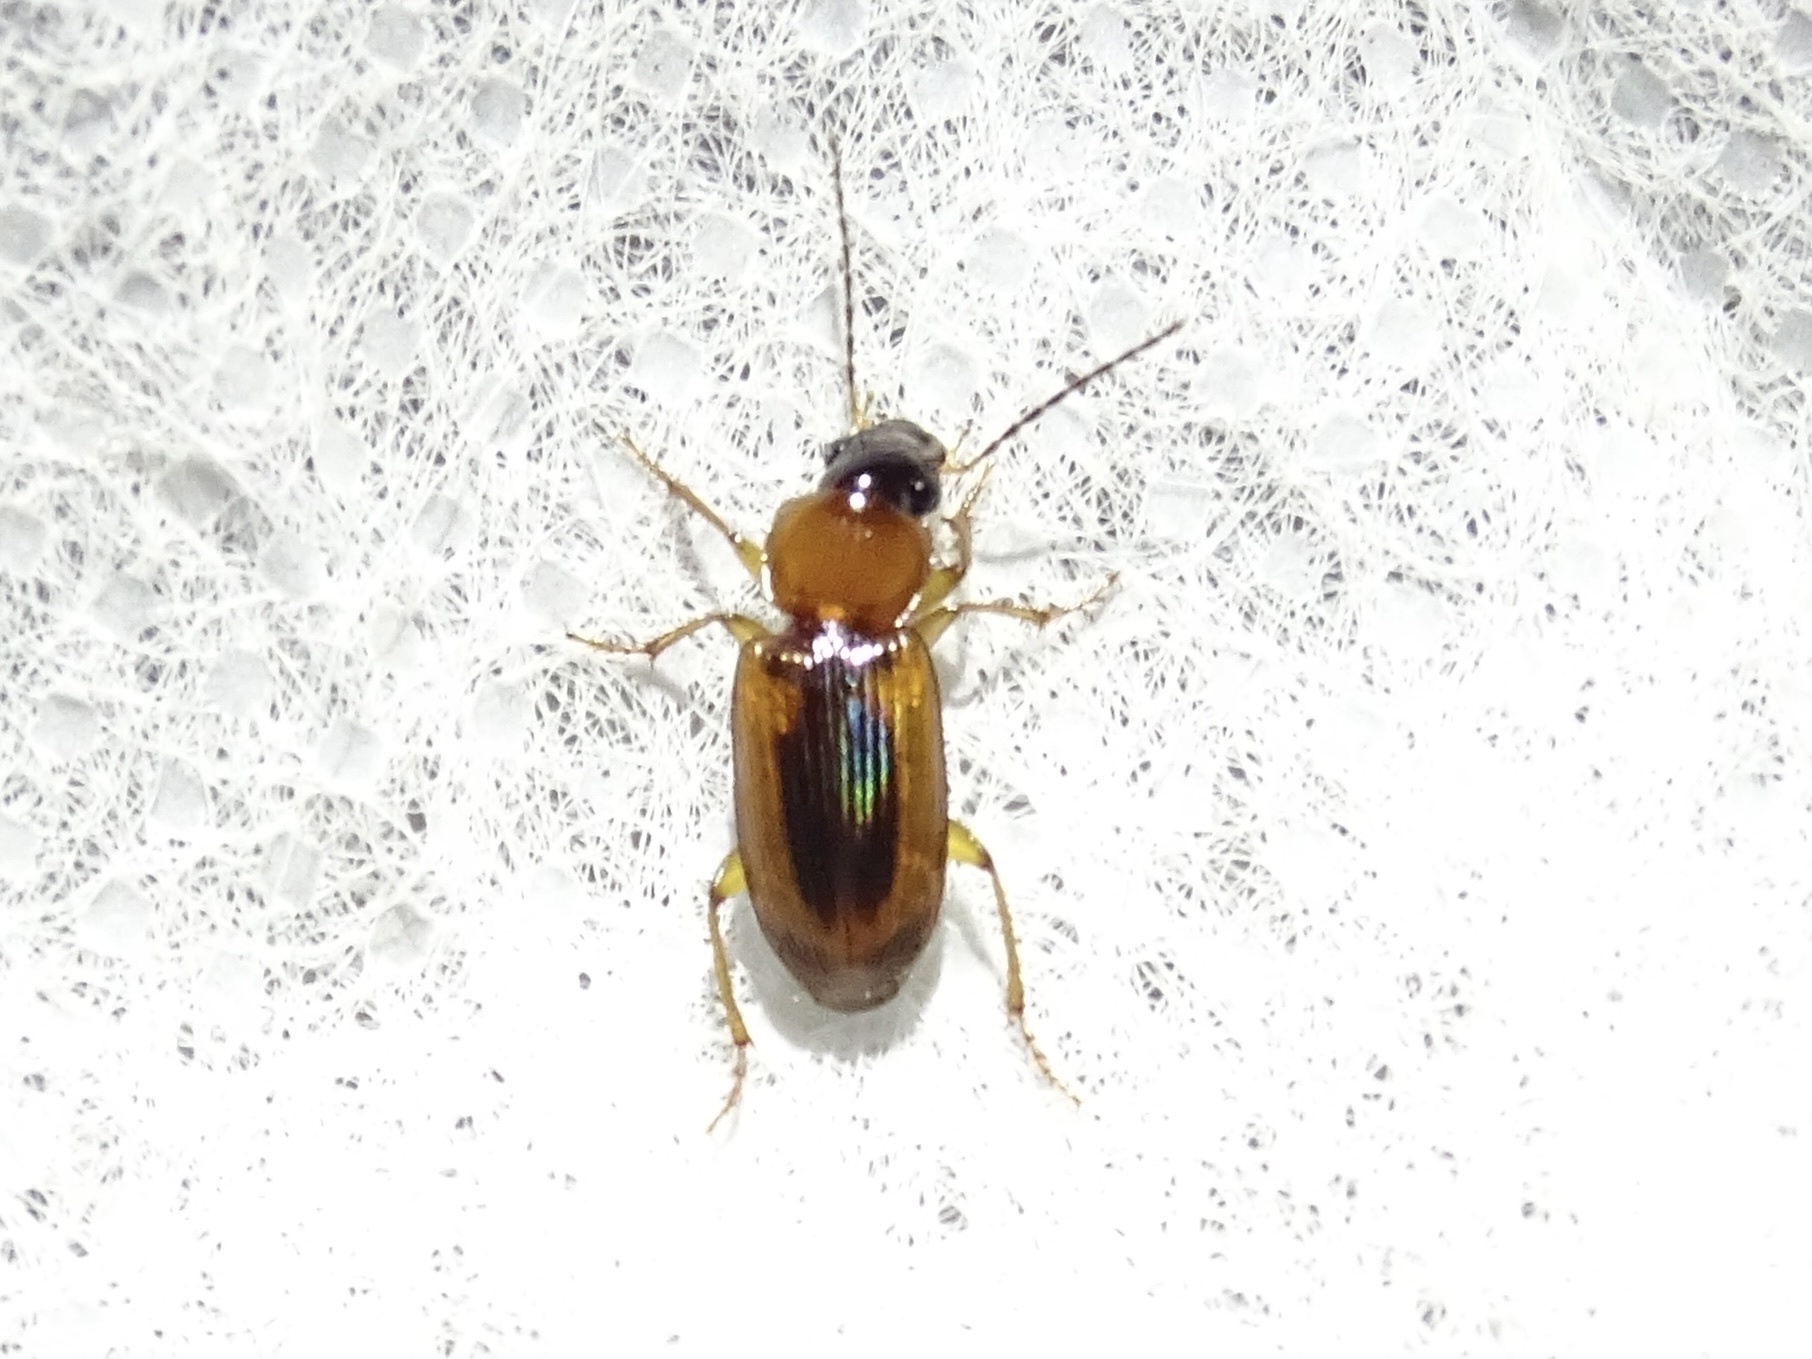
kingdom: Animalia
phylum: Arthropoda
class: Insecta
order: Coleoptera
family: Carabidae
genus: Stenolophus
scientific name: Stenolophus dissimilis
